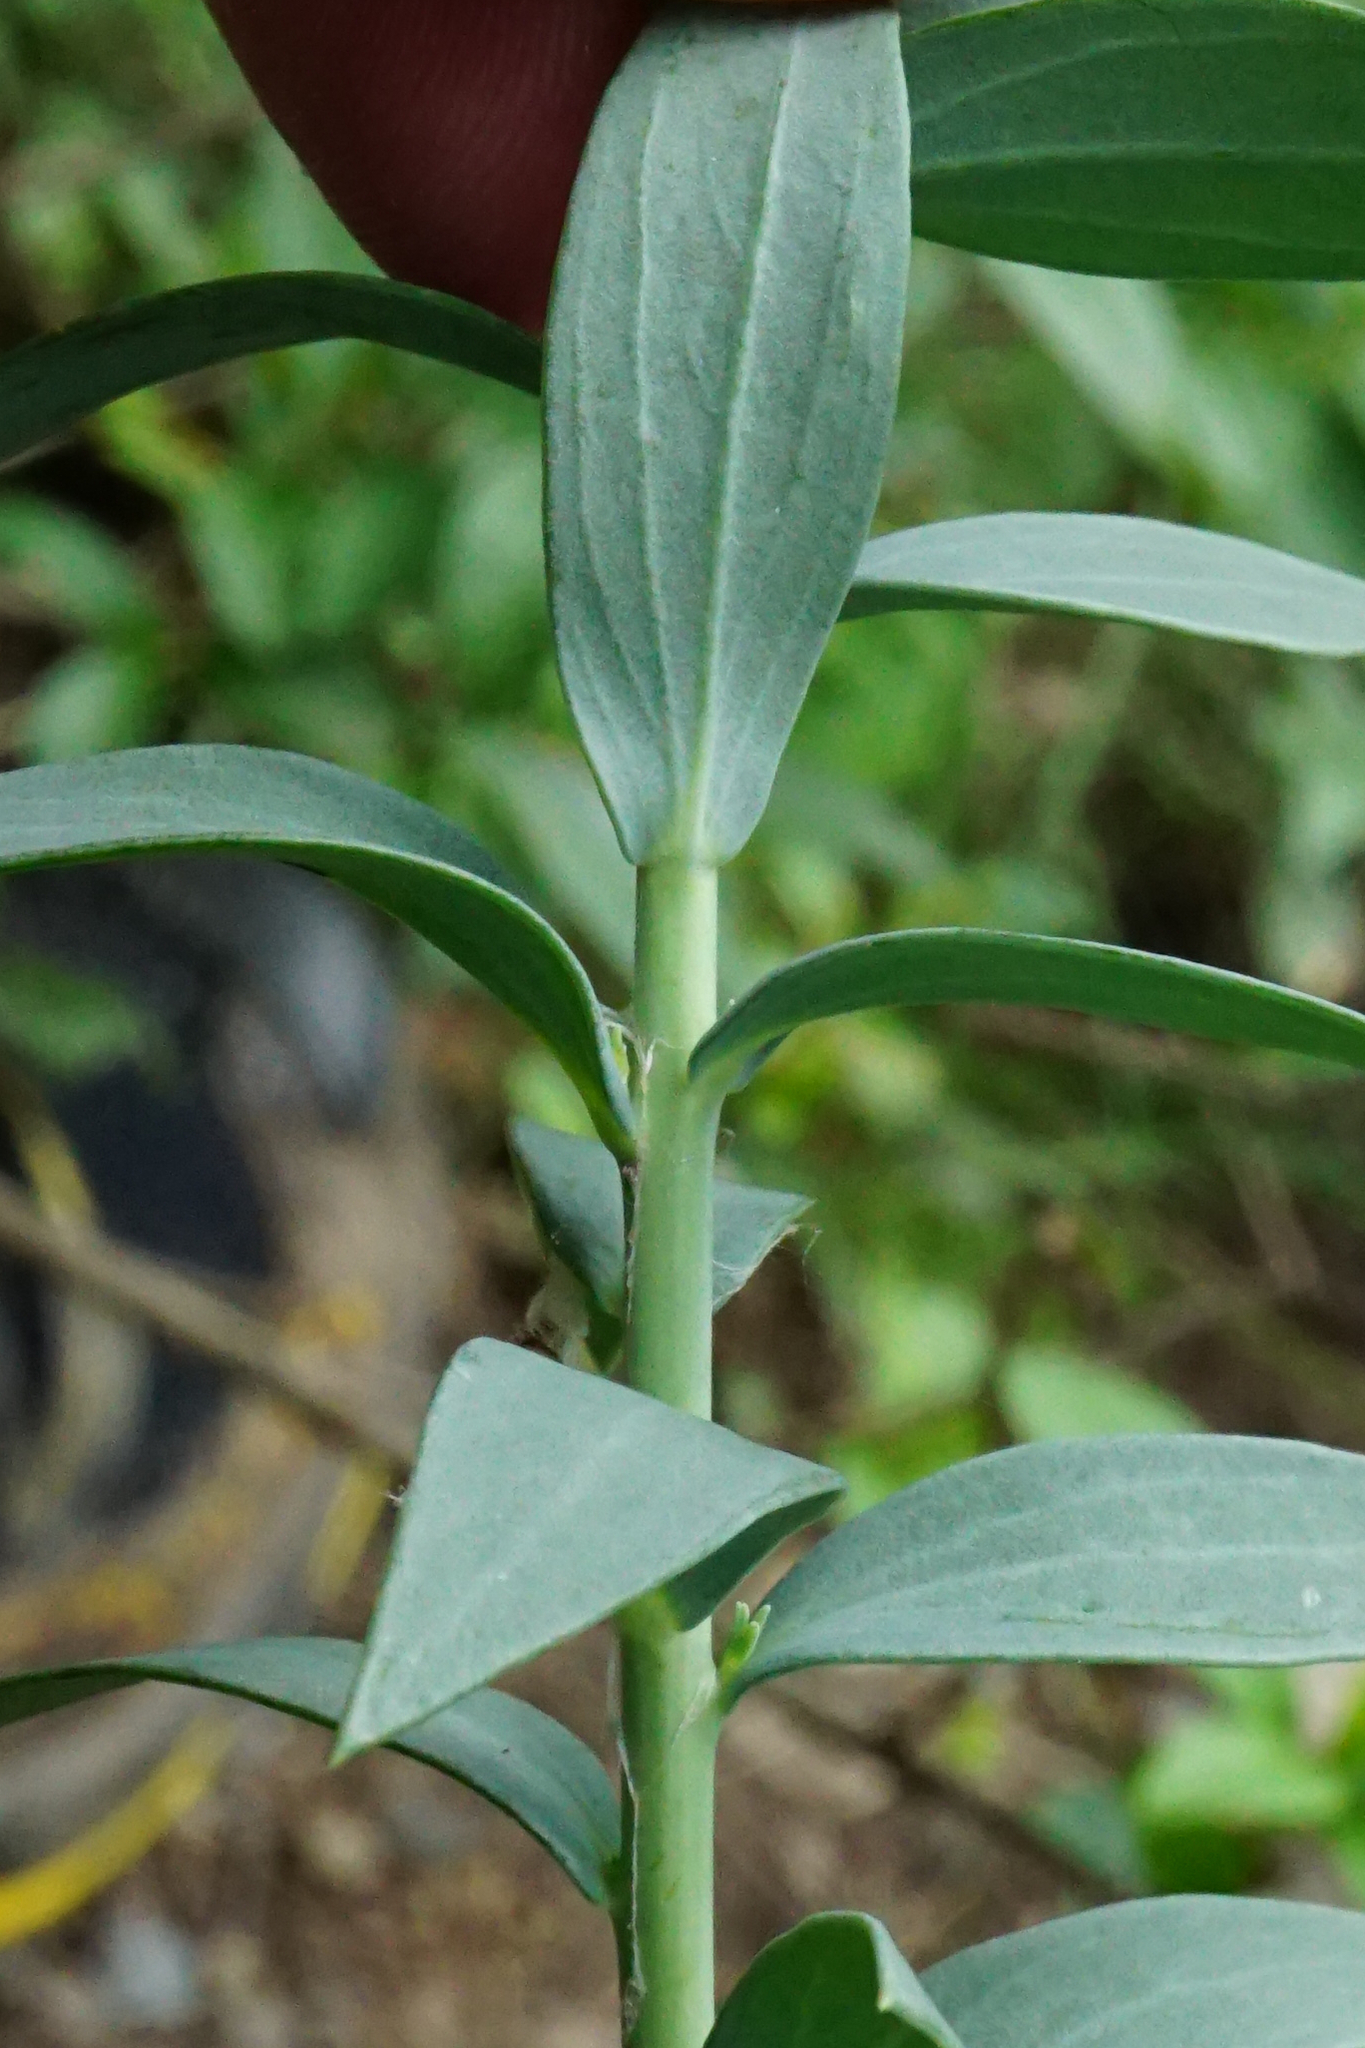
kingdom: Plantae
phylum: Tracheophyta
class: Magnoliopsida
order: Lamiales
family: Plantaginaceae
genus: Linaria
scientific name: Linaria genistifolia
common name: Broomleaf toadflax
